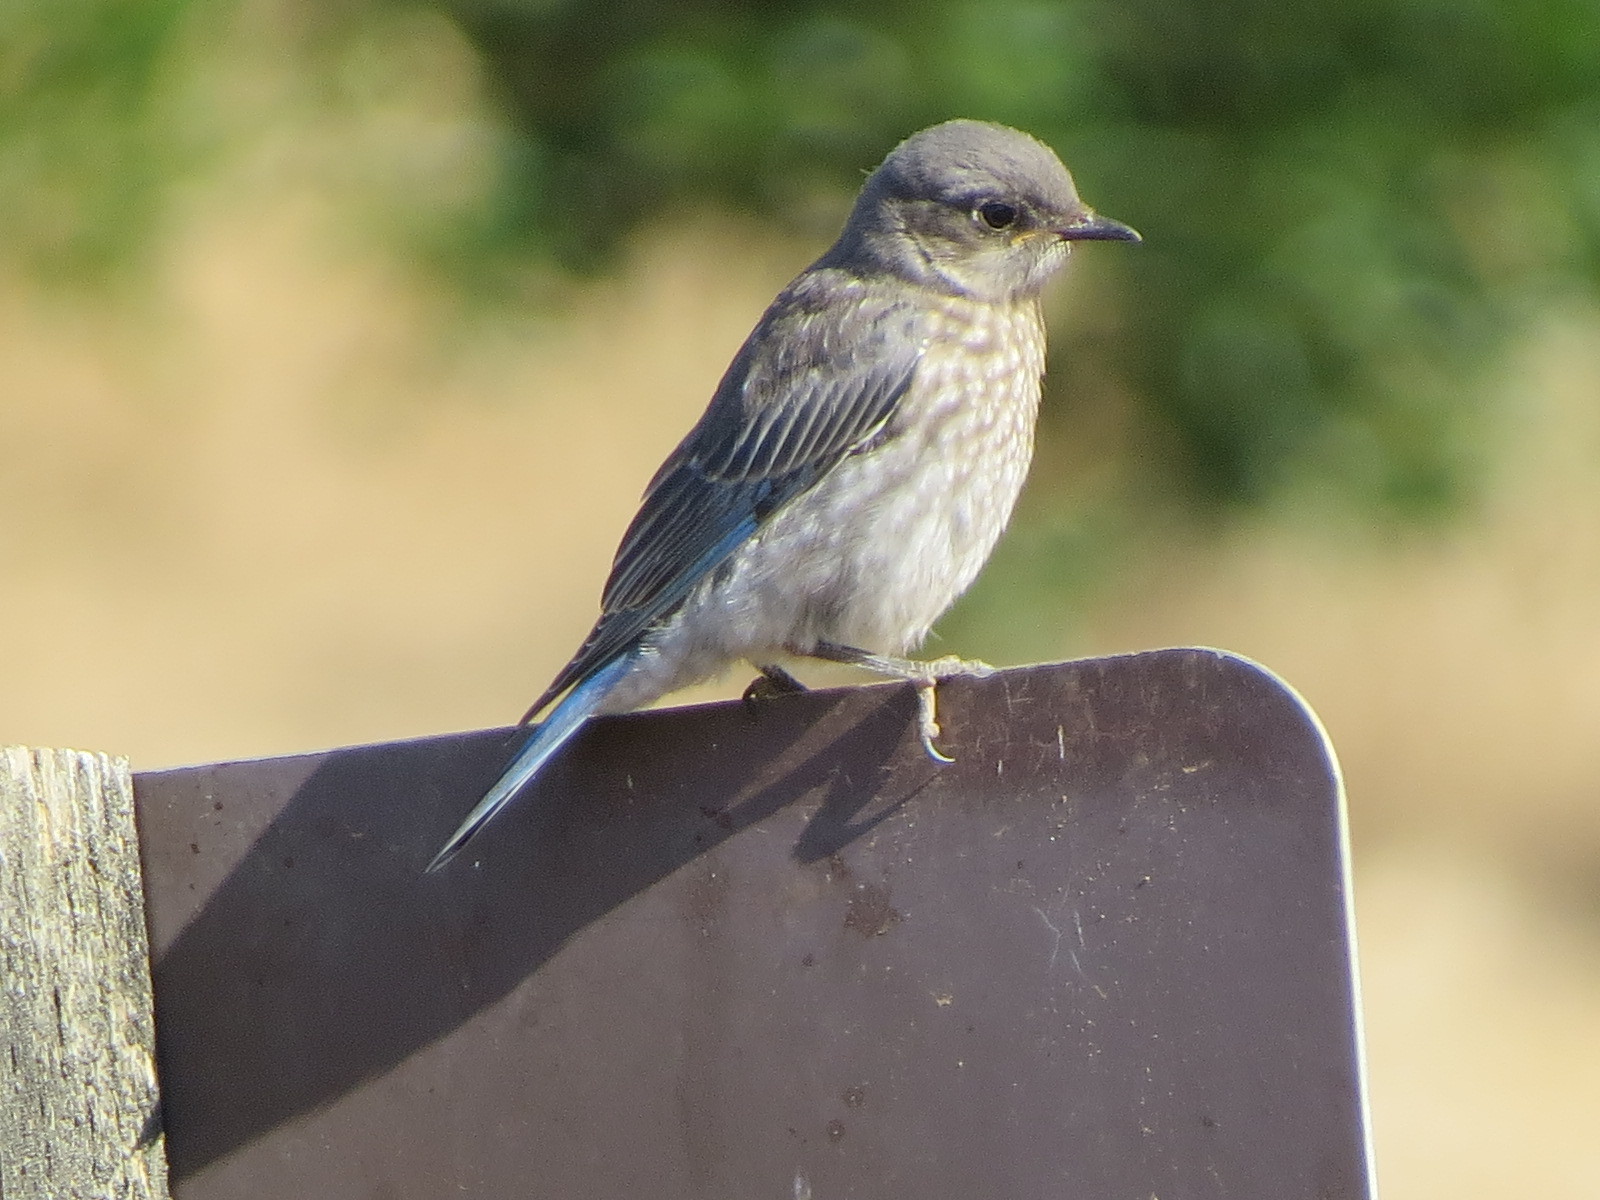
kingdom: Animalia
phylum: Chordata
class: Aves
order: Passeriformes
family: Turdidae
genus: Sialia
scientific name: Sialia mexicana
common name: Western bluebird
